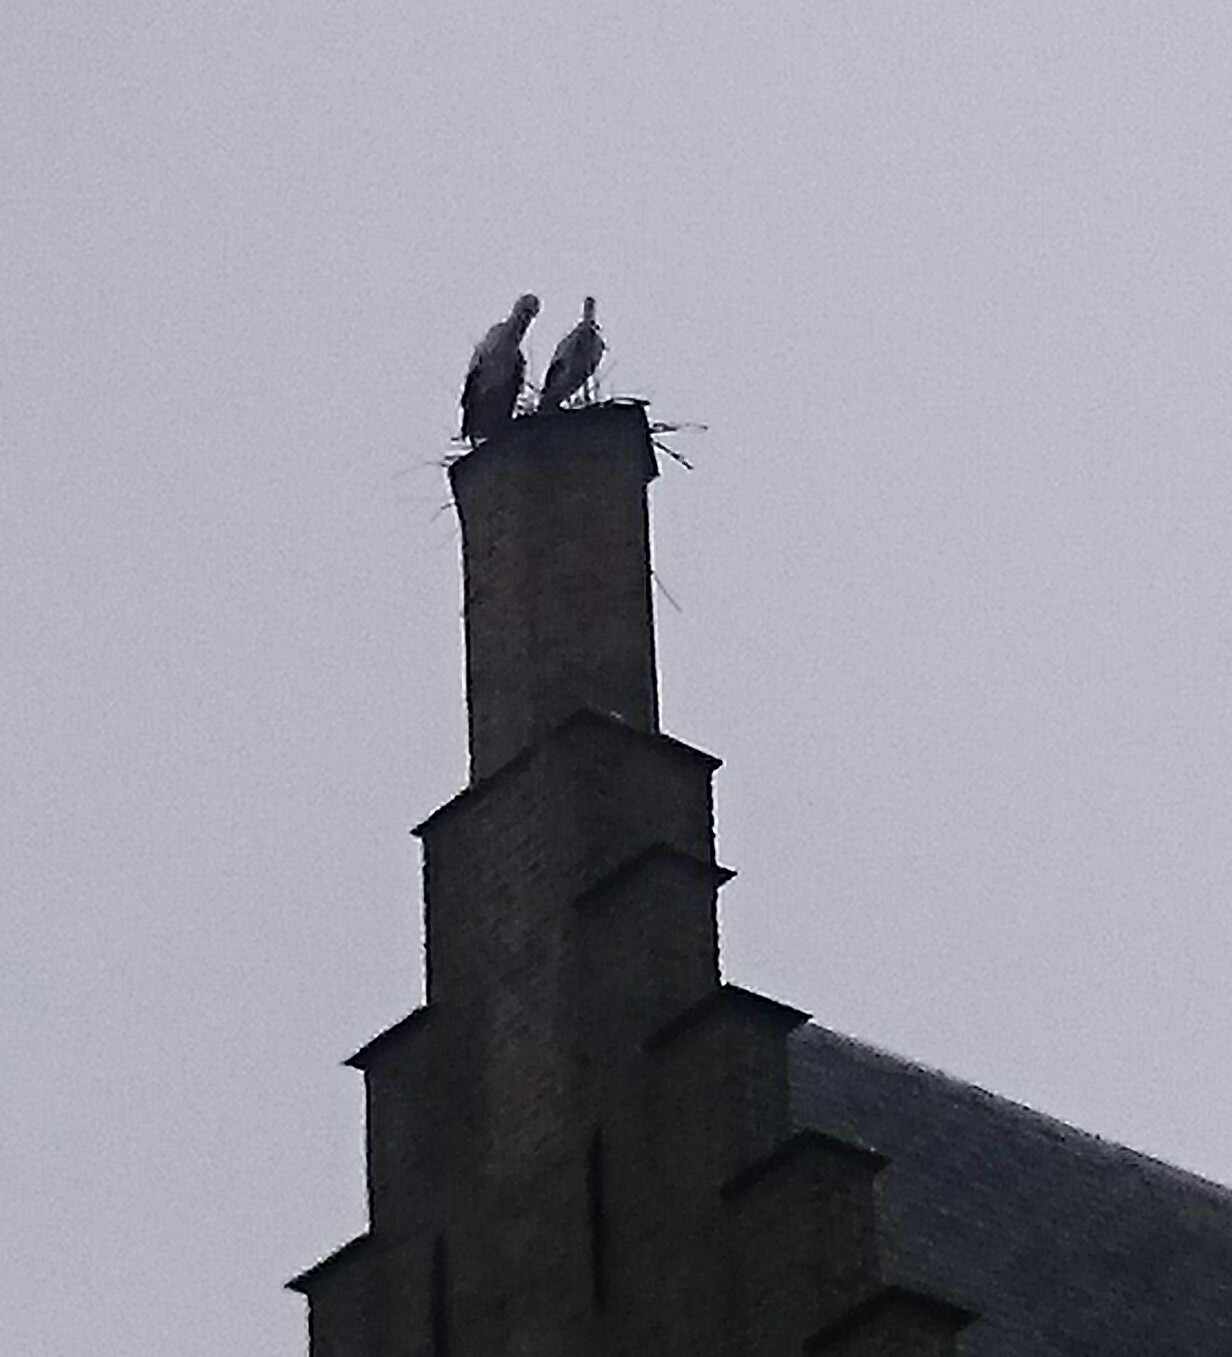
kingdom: Animalia
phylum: Chordata
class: Aves
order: Ciconiiformes
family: Ciconiidae
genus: Ciconia
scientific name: Ciconia ciconia
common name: White stork
